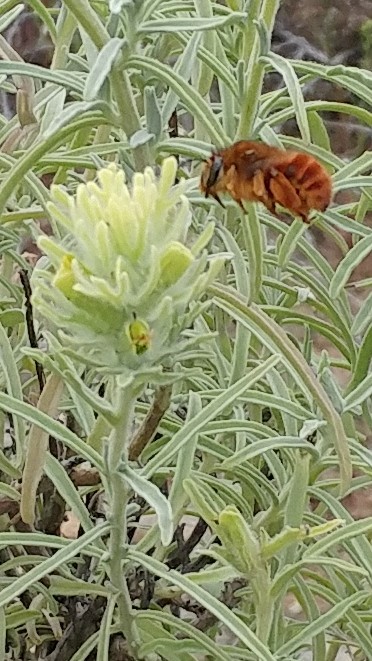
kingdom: Animalia
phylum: Arthropoda
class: Insecta
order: Hymenoptera
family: Apidae
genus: Habropoda
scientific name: Habropoda depressa
